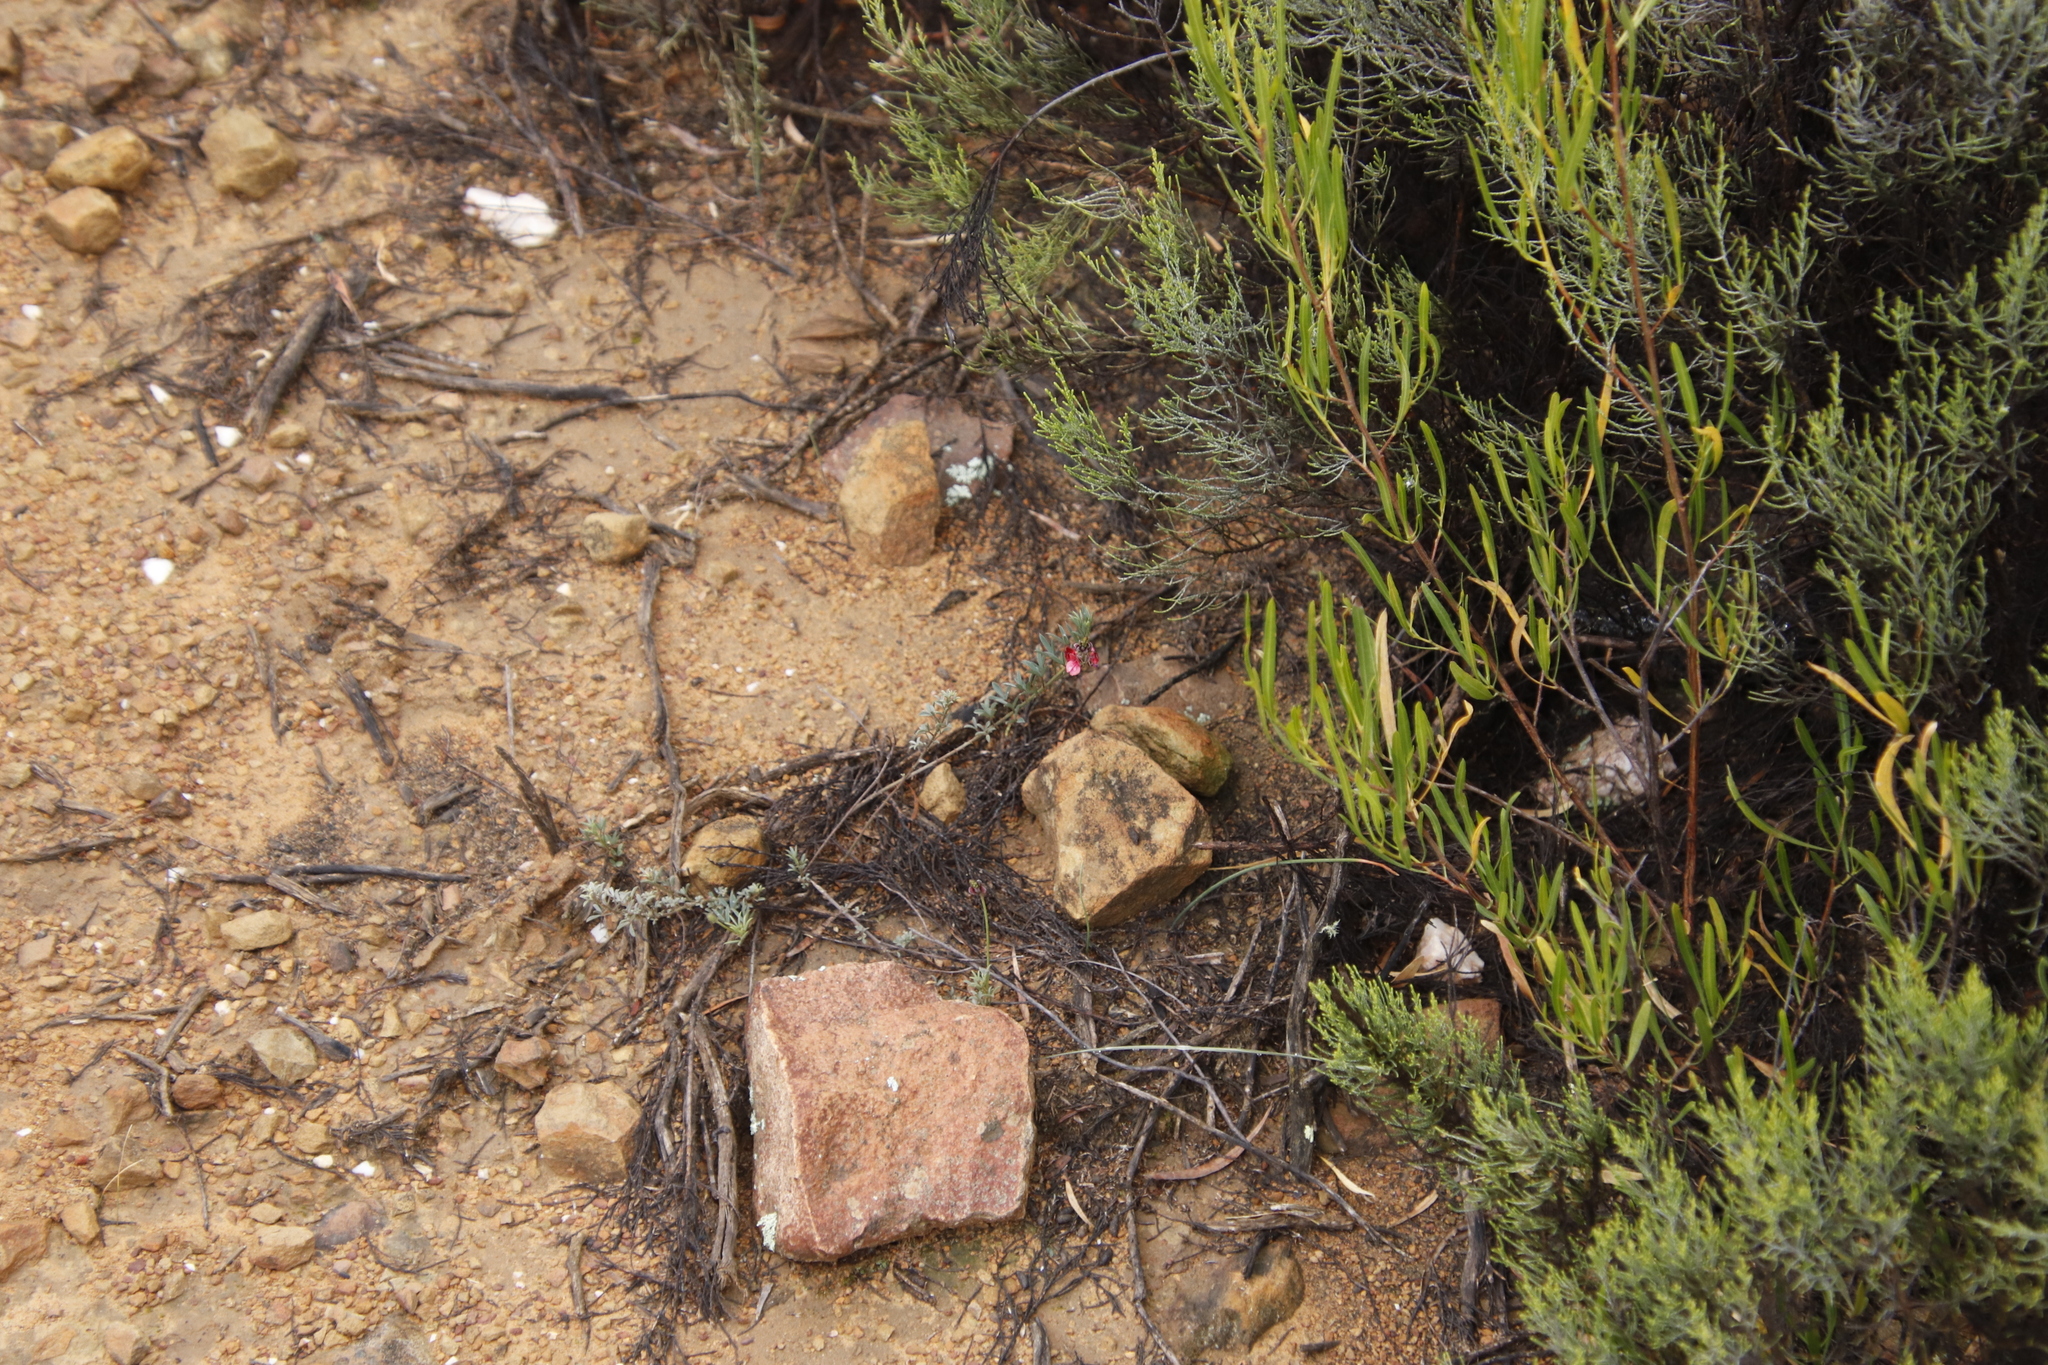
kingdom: Plantae
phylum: Tracheophyta
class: Magnoliopsida
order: Fabales
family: Fabaceae
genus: Indigofera
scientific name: Indigofera heterophylla
